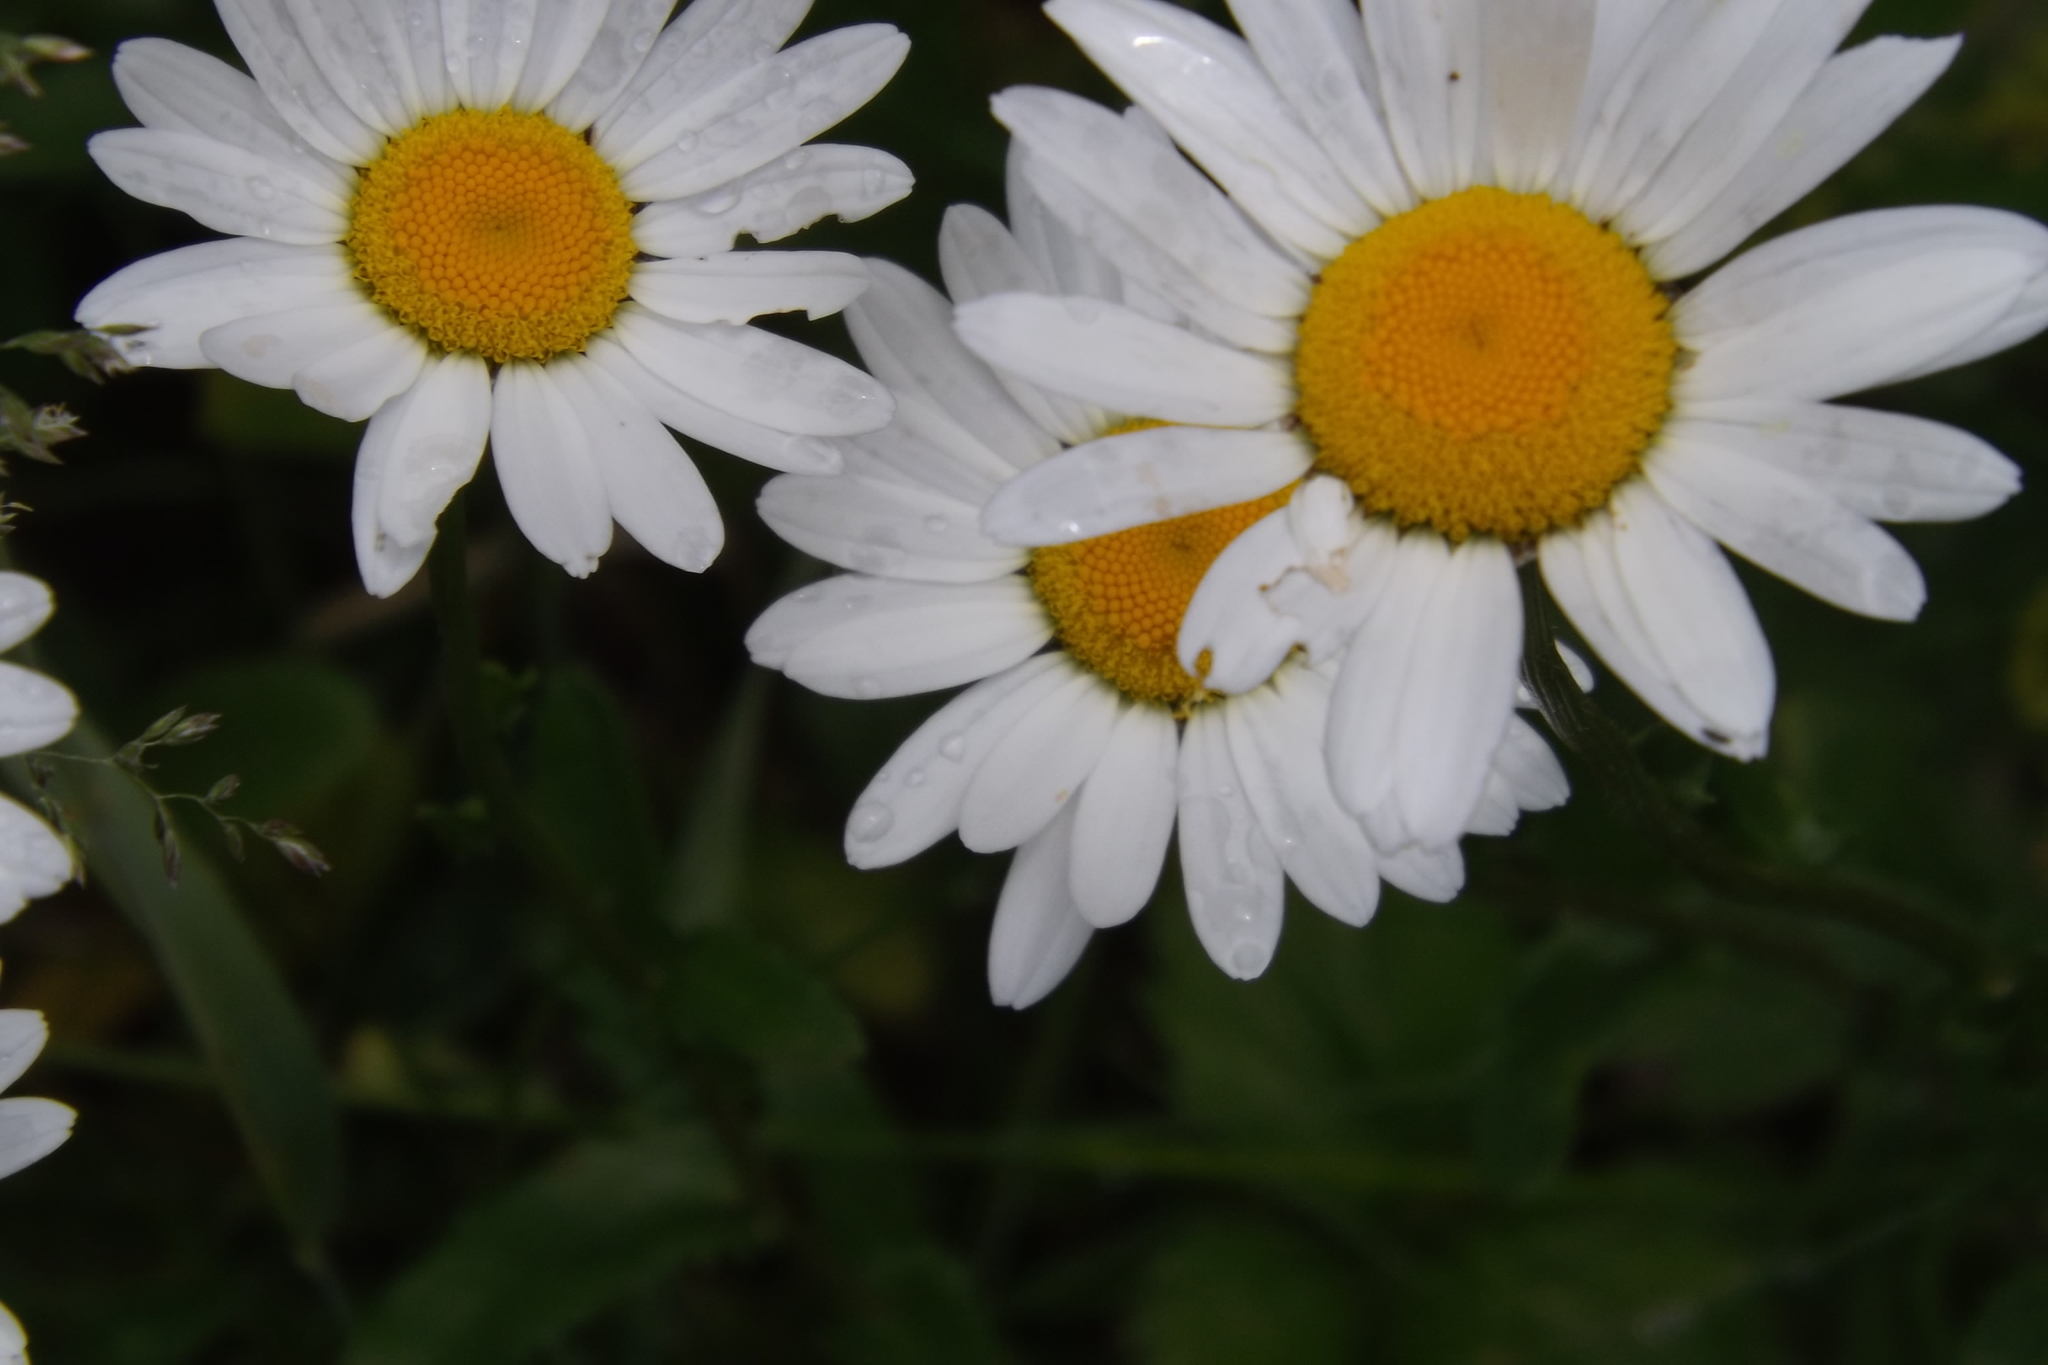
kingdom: Plantae
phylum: Tracheophyta
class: Magnoliopsida
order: Asterales
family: Asteraceae
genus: Leucanthemum
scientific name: Leucanthemum vulgare
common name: Oxeye daisy
